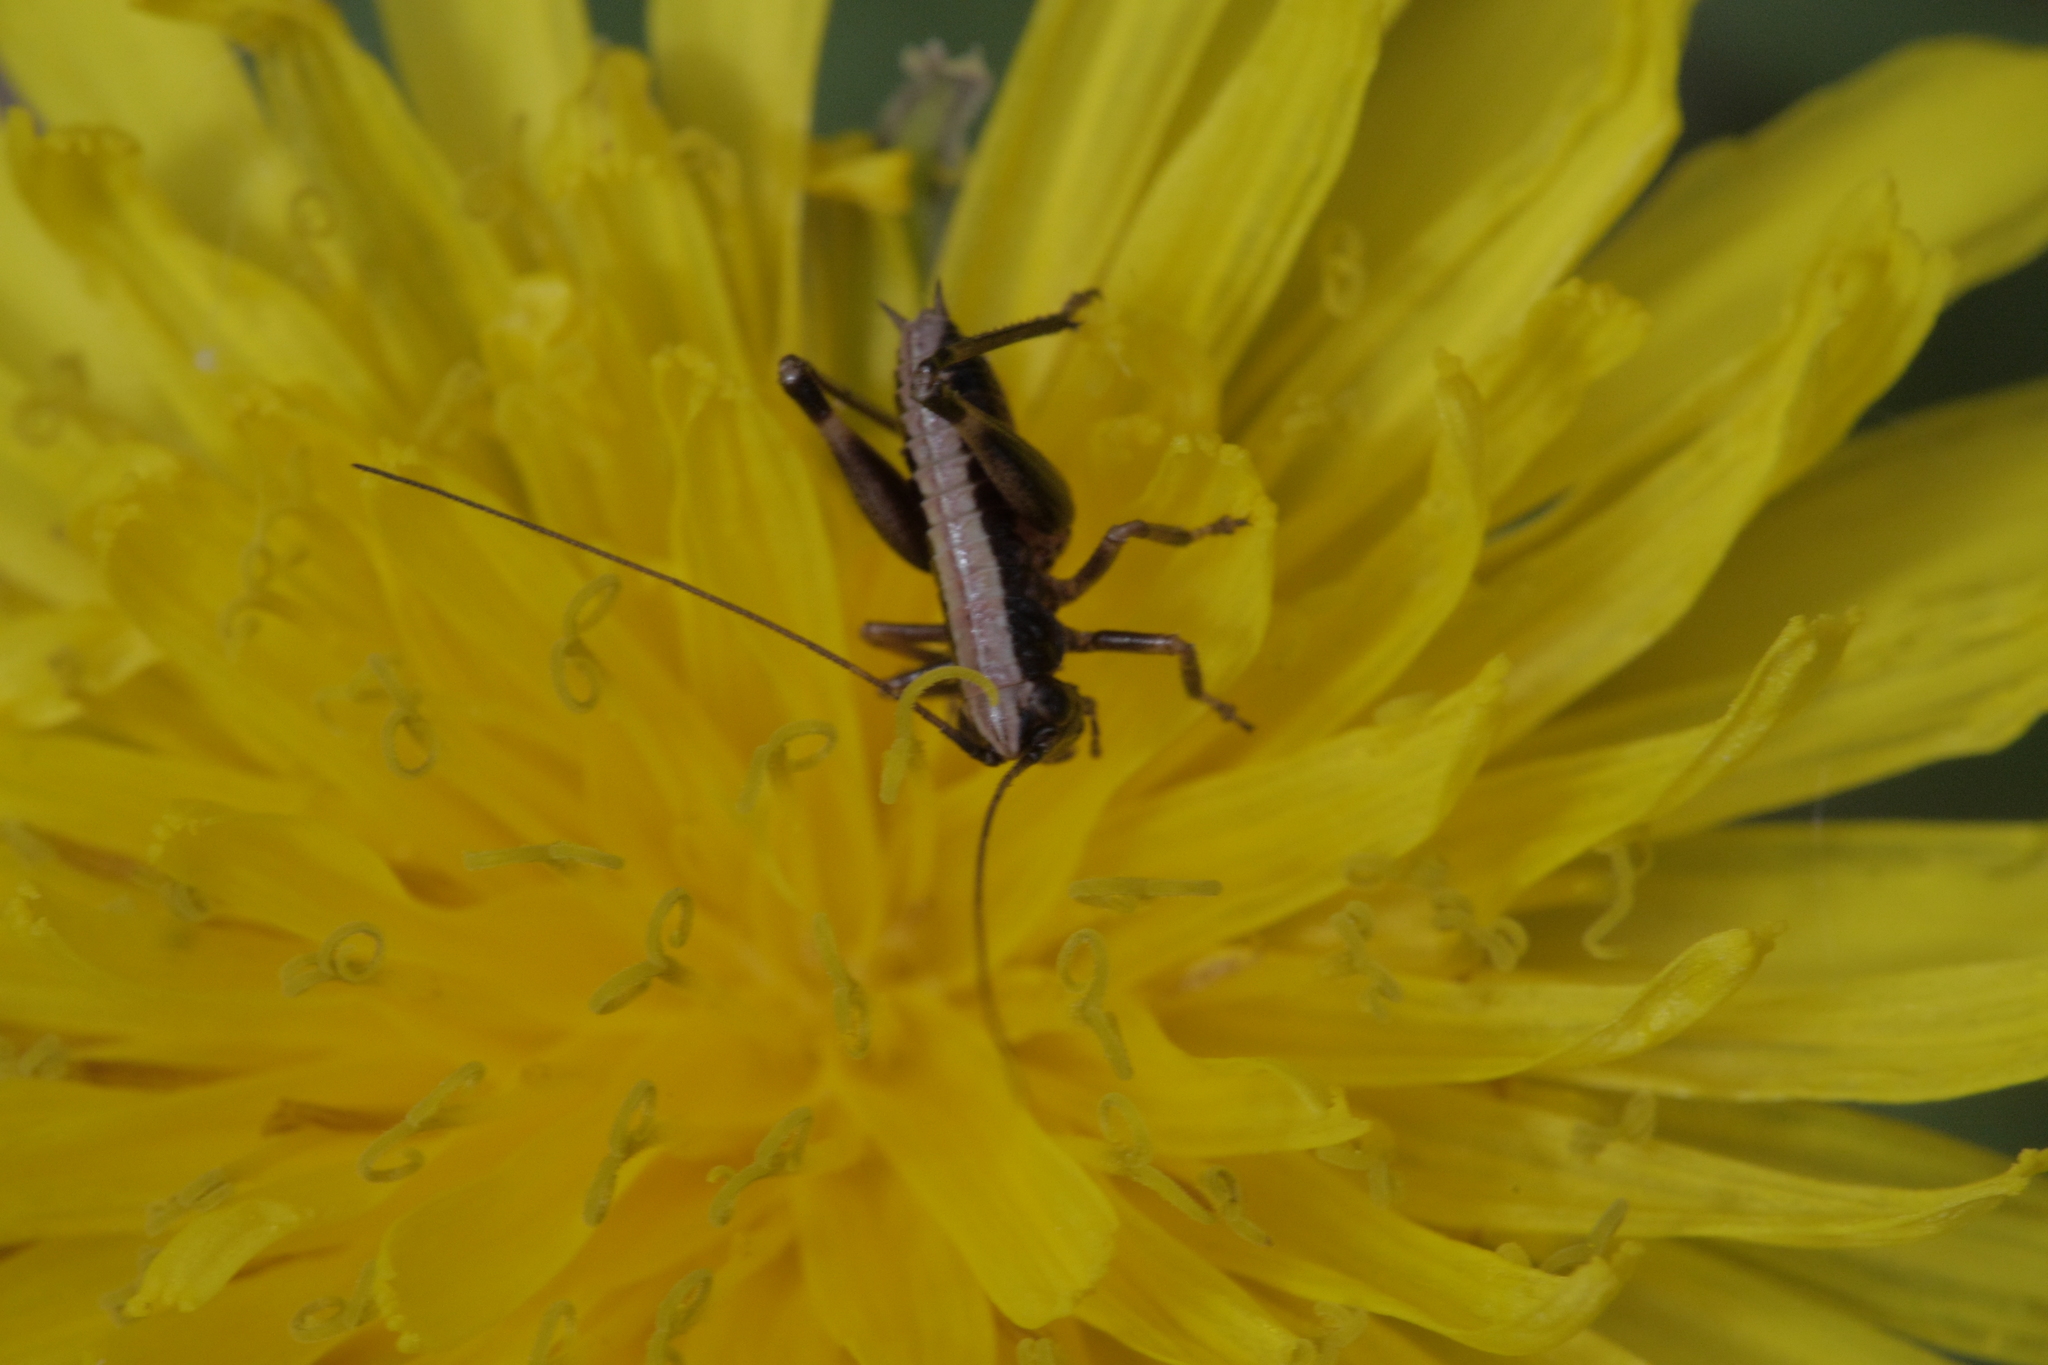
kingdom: Animalia
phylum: Arthropoda
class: Insecta
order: Orthoptera
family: Tettigoniidae
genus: Pholidoptera
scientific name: Pholidoptera griseoaptera
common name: Dark bush-cricket
